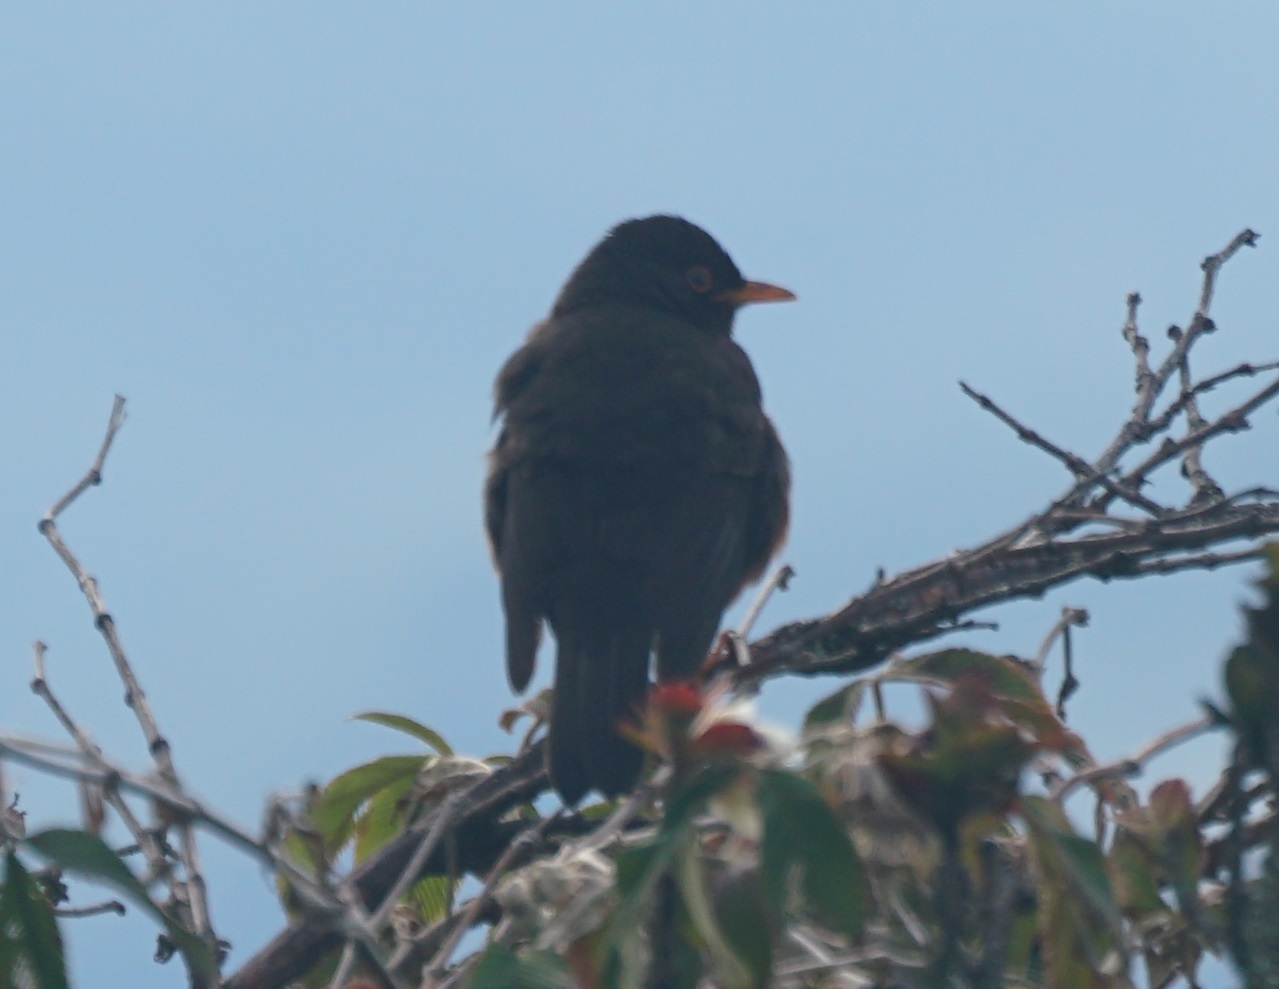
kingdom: Animalia
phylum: Chordata
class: Aves
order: Passeriformes
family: Turdidae
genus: Turdus
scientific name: Turdus poliocephalus
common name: Island thrush
